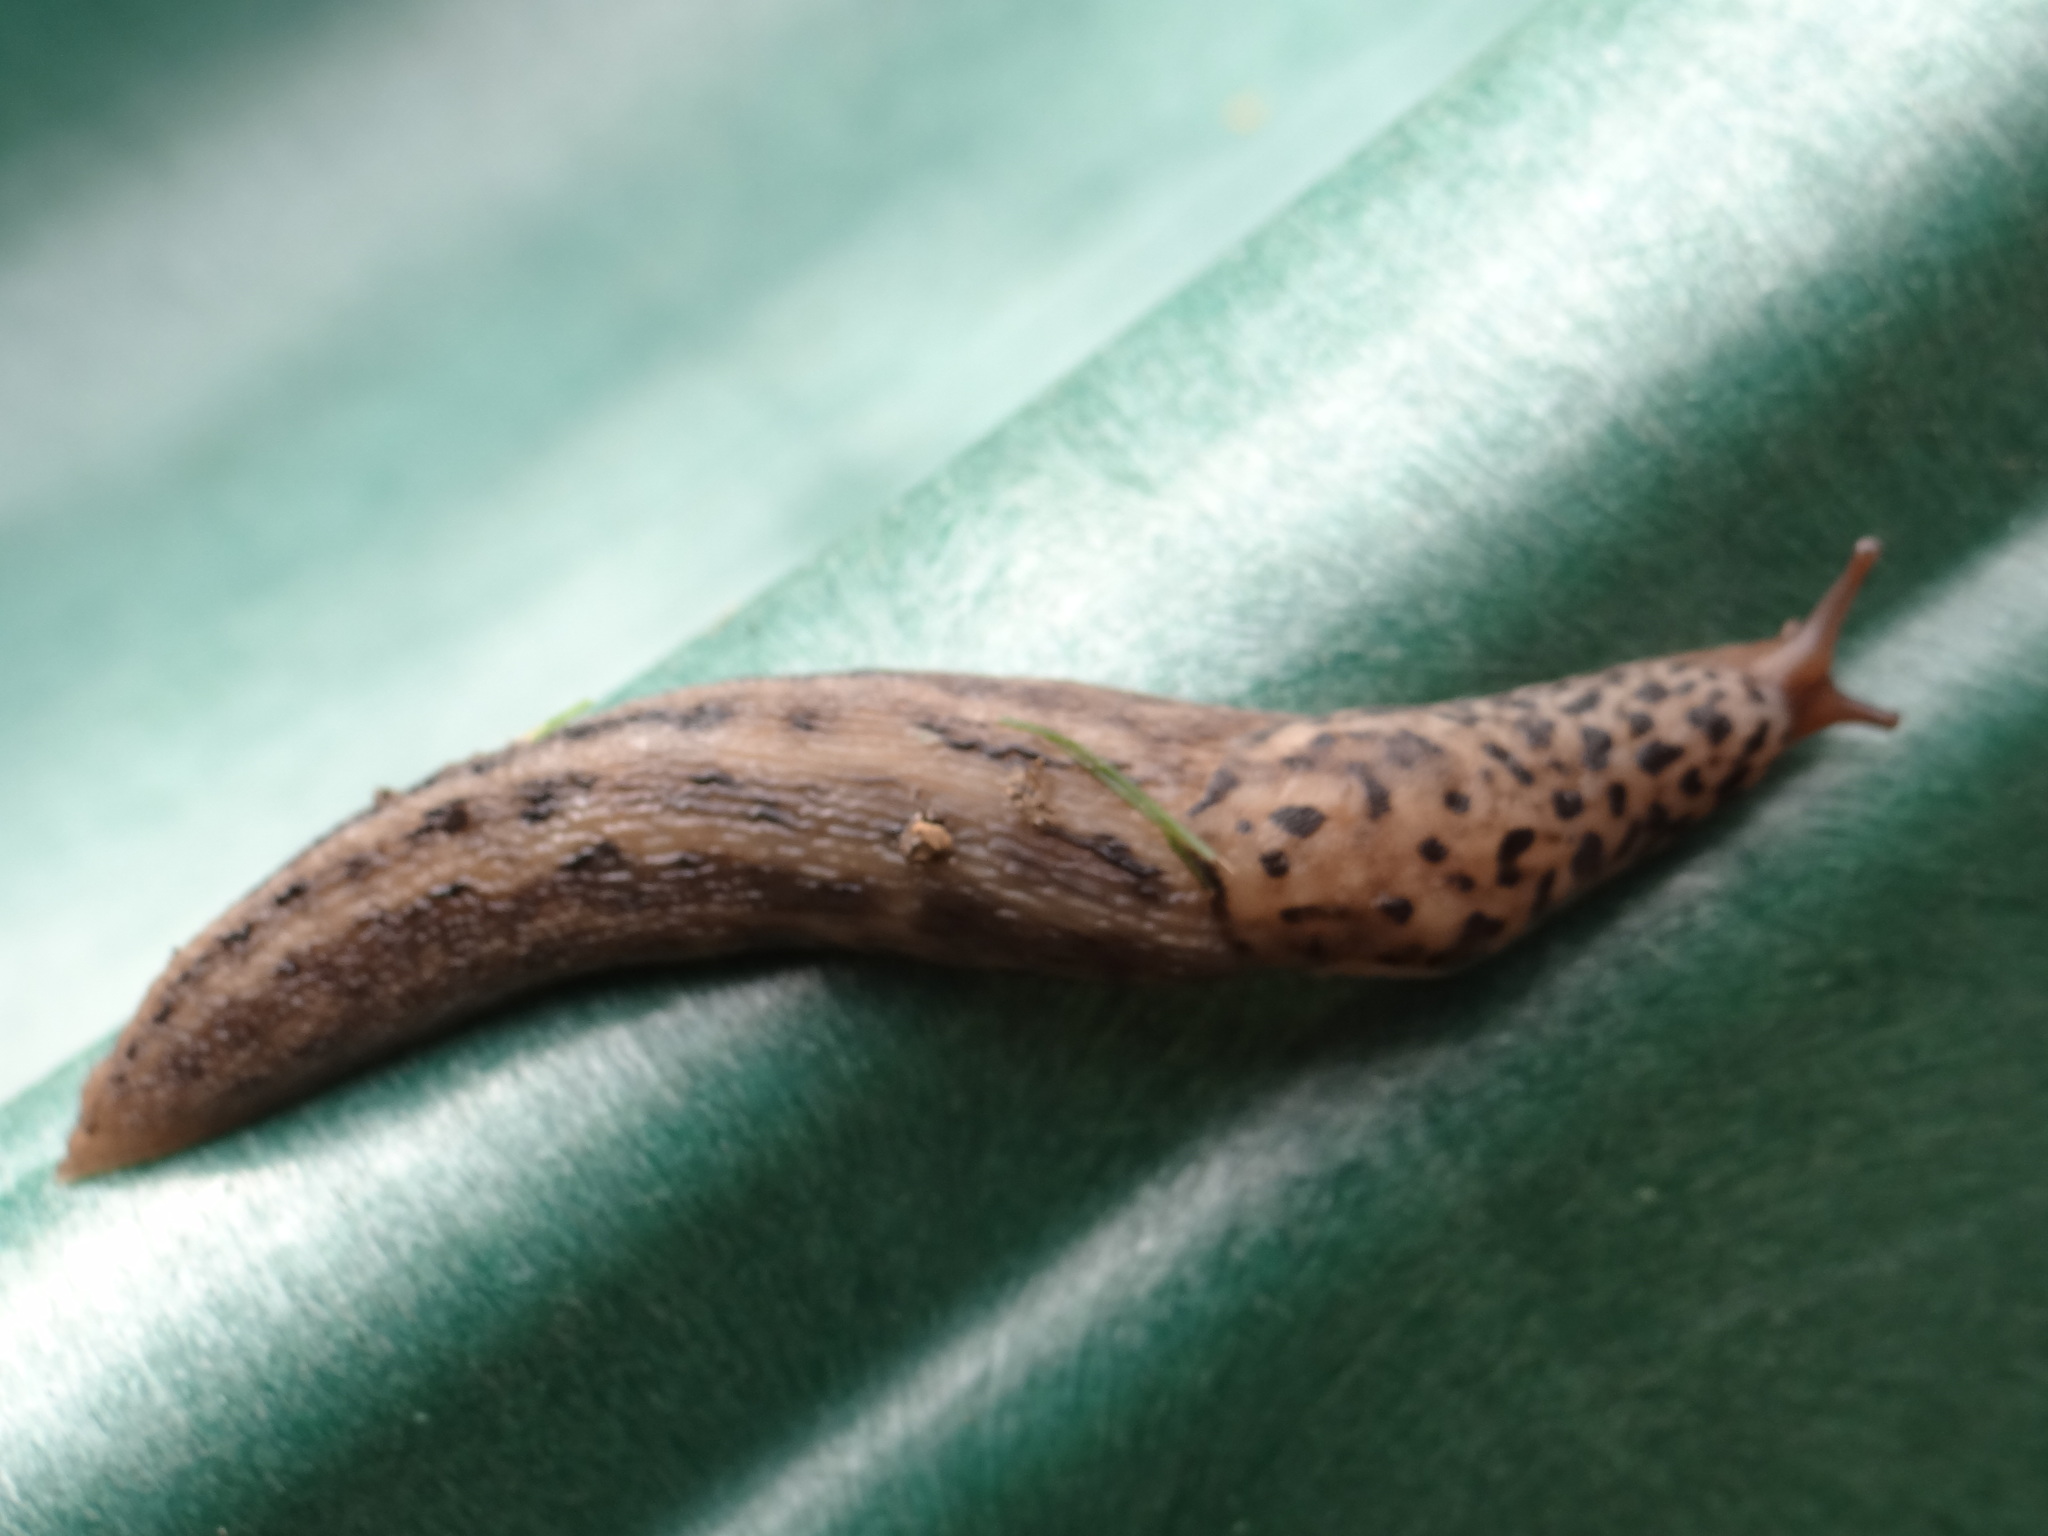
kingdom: Animalia
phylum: Mollusca
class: Gastropoda
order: Stylommatophora
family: Limacidae
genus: Limax
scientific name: Limax maximus
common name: Great grey slug
